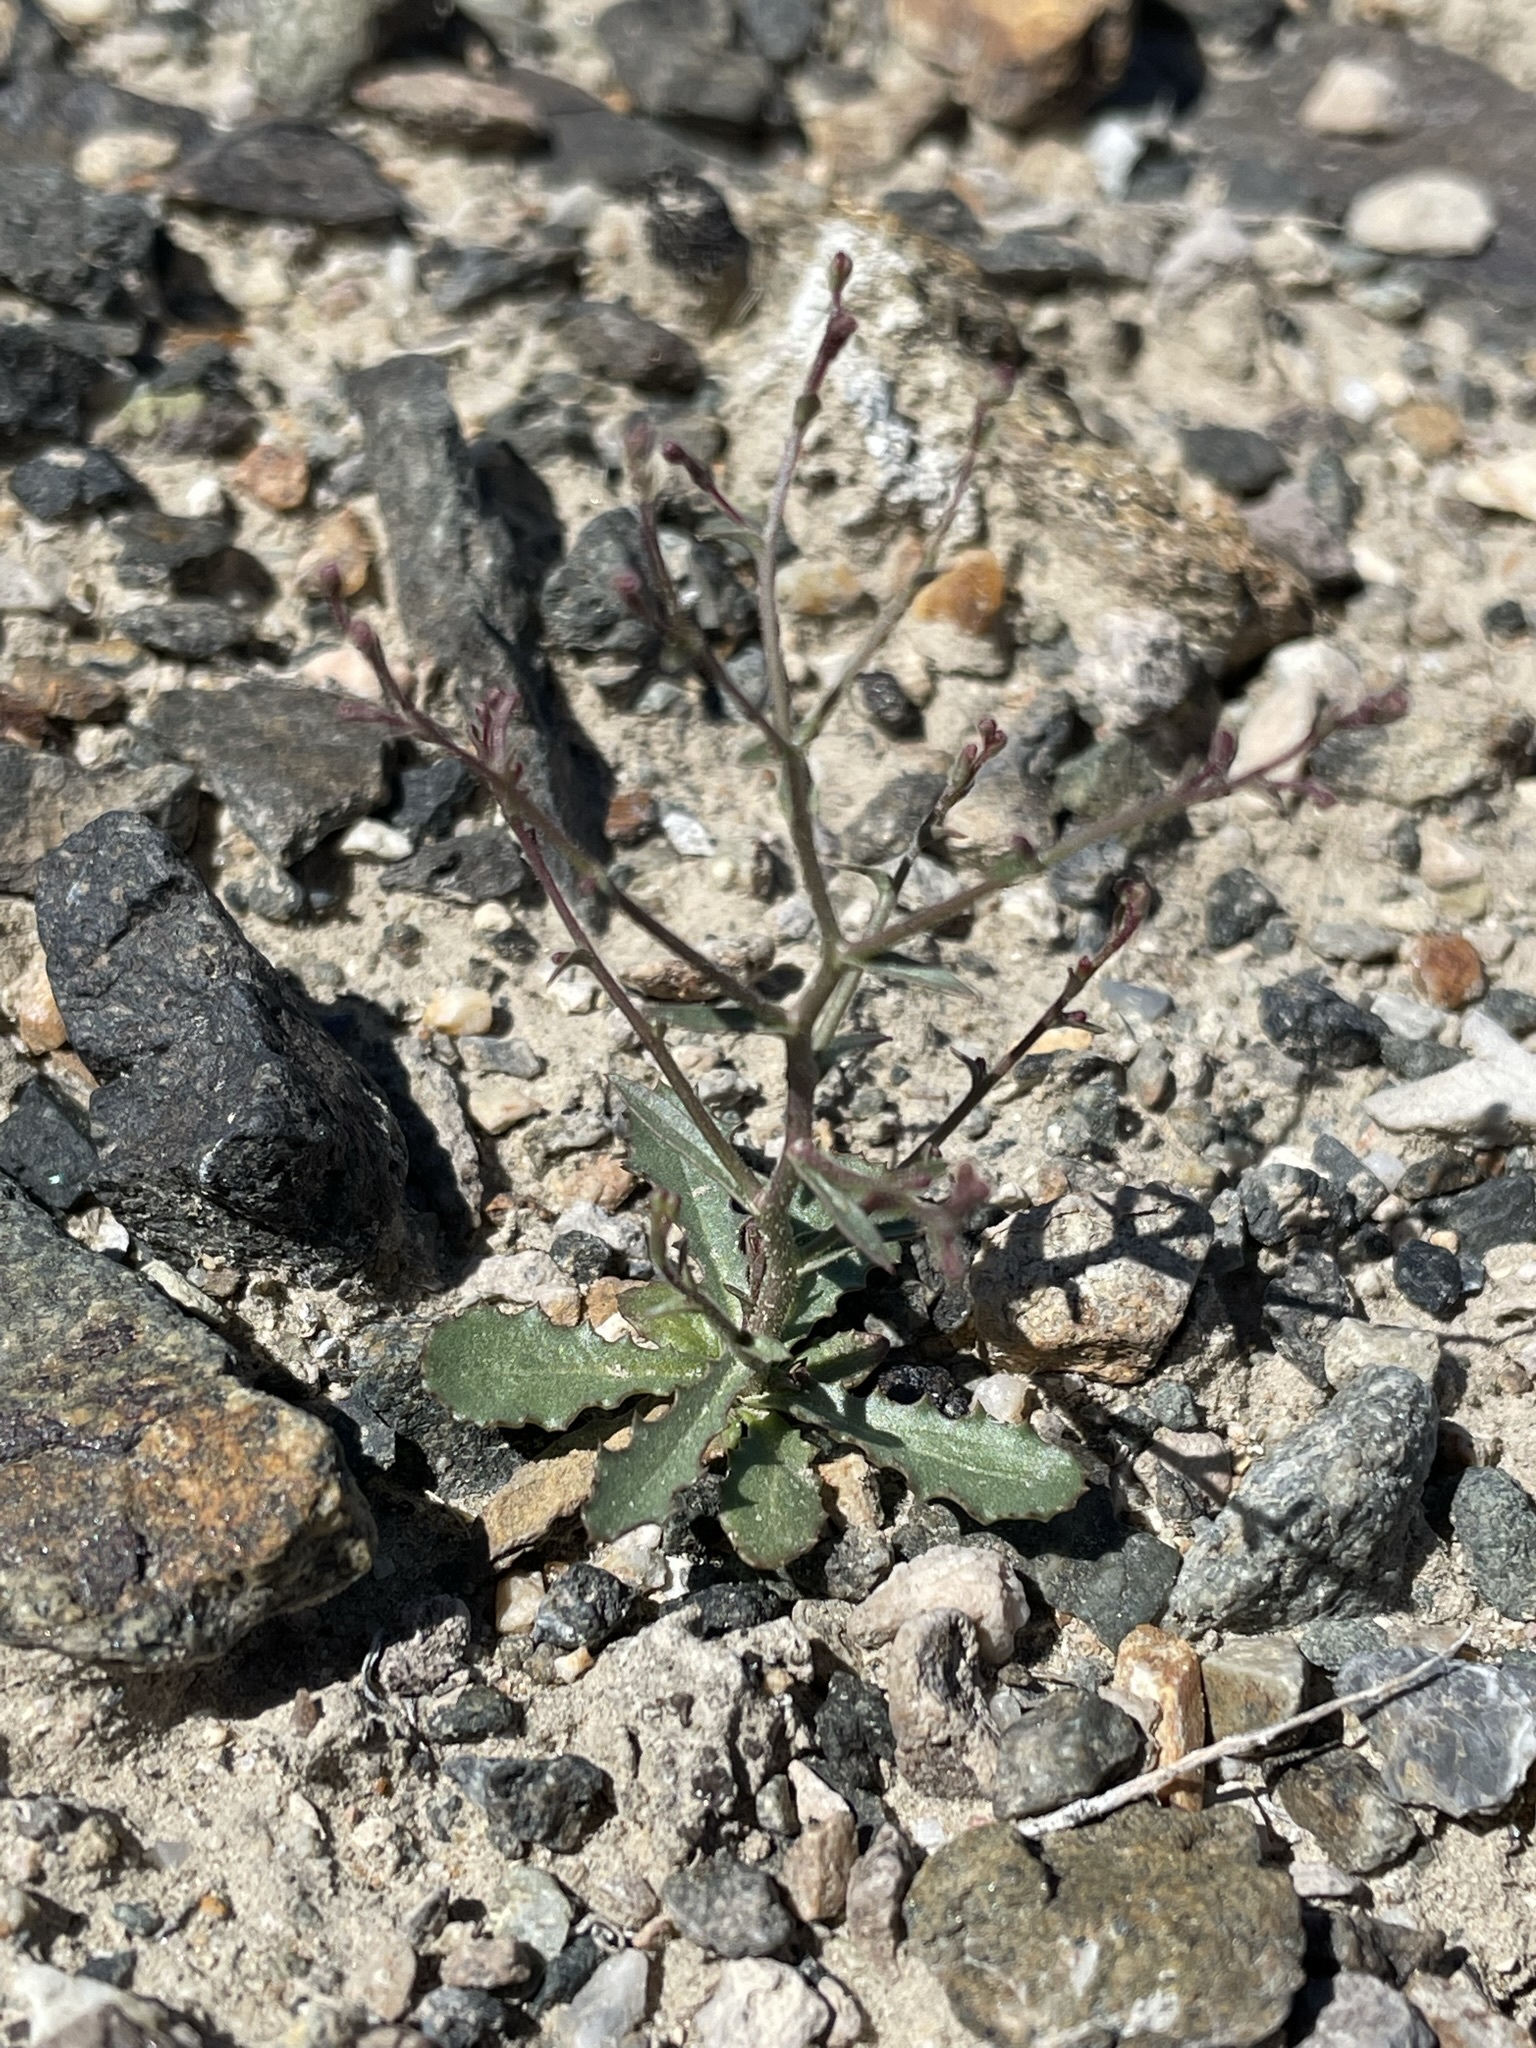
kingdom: Plantae
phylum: Tracheophyta
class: Magnoliopsida
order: Asterales
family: Asteraceae
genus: Lygodesmia
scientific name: Lygodesmia exigua
